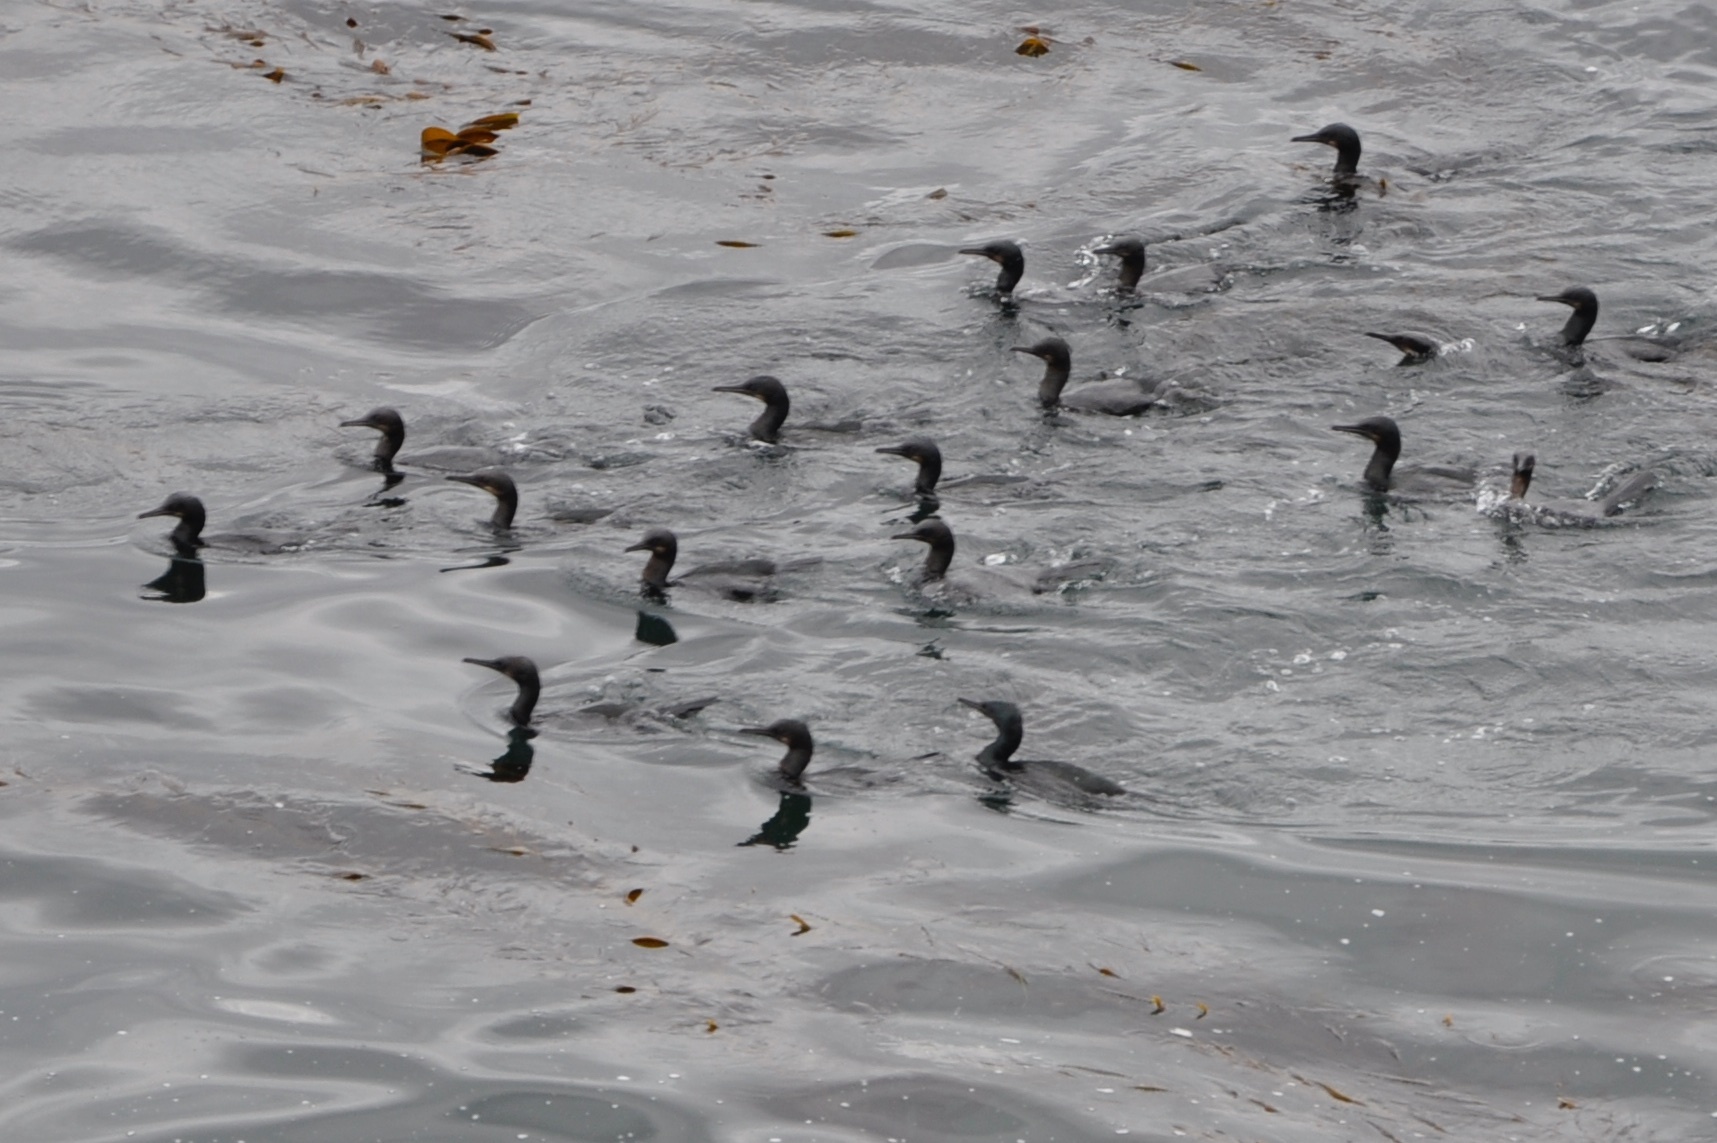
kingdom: Animalia
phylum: Chordata
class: Aves
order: Suliformes
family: Phalacrocoracidae
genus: Urile
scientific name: Urile penicillatus
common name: Brandt's cormorant
